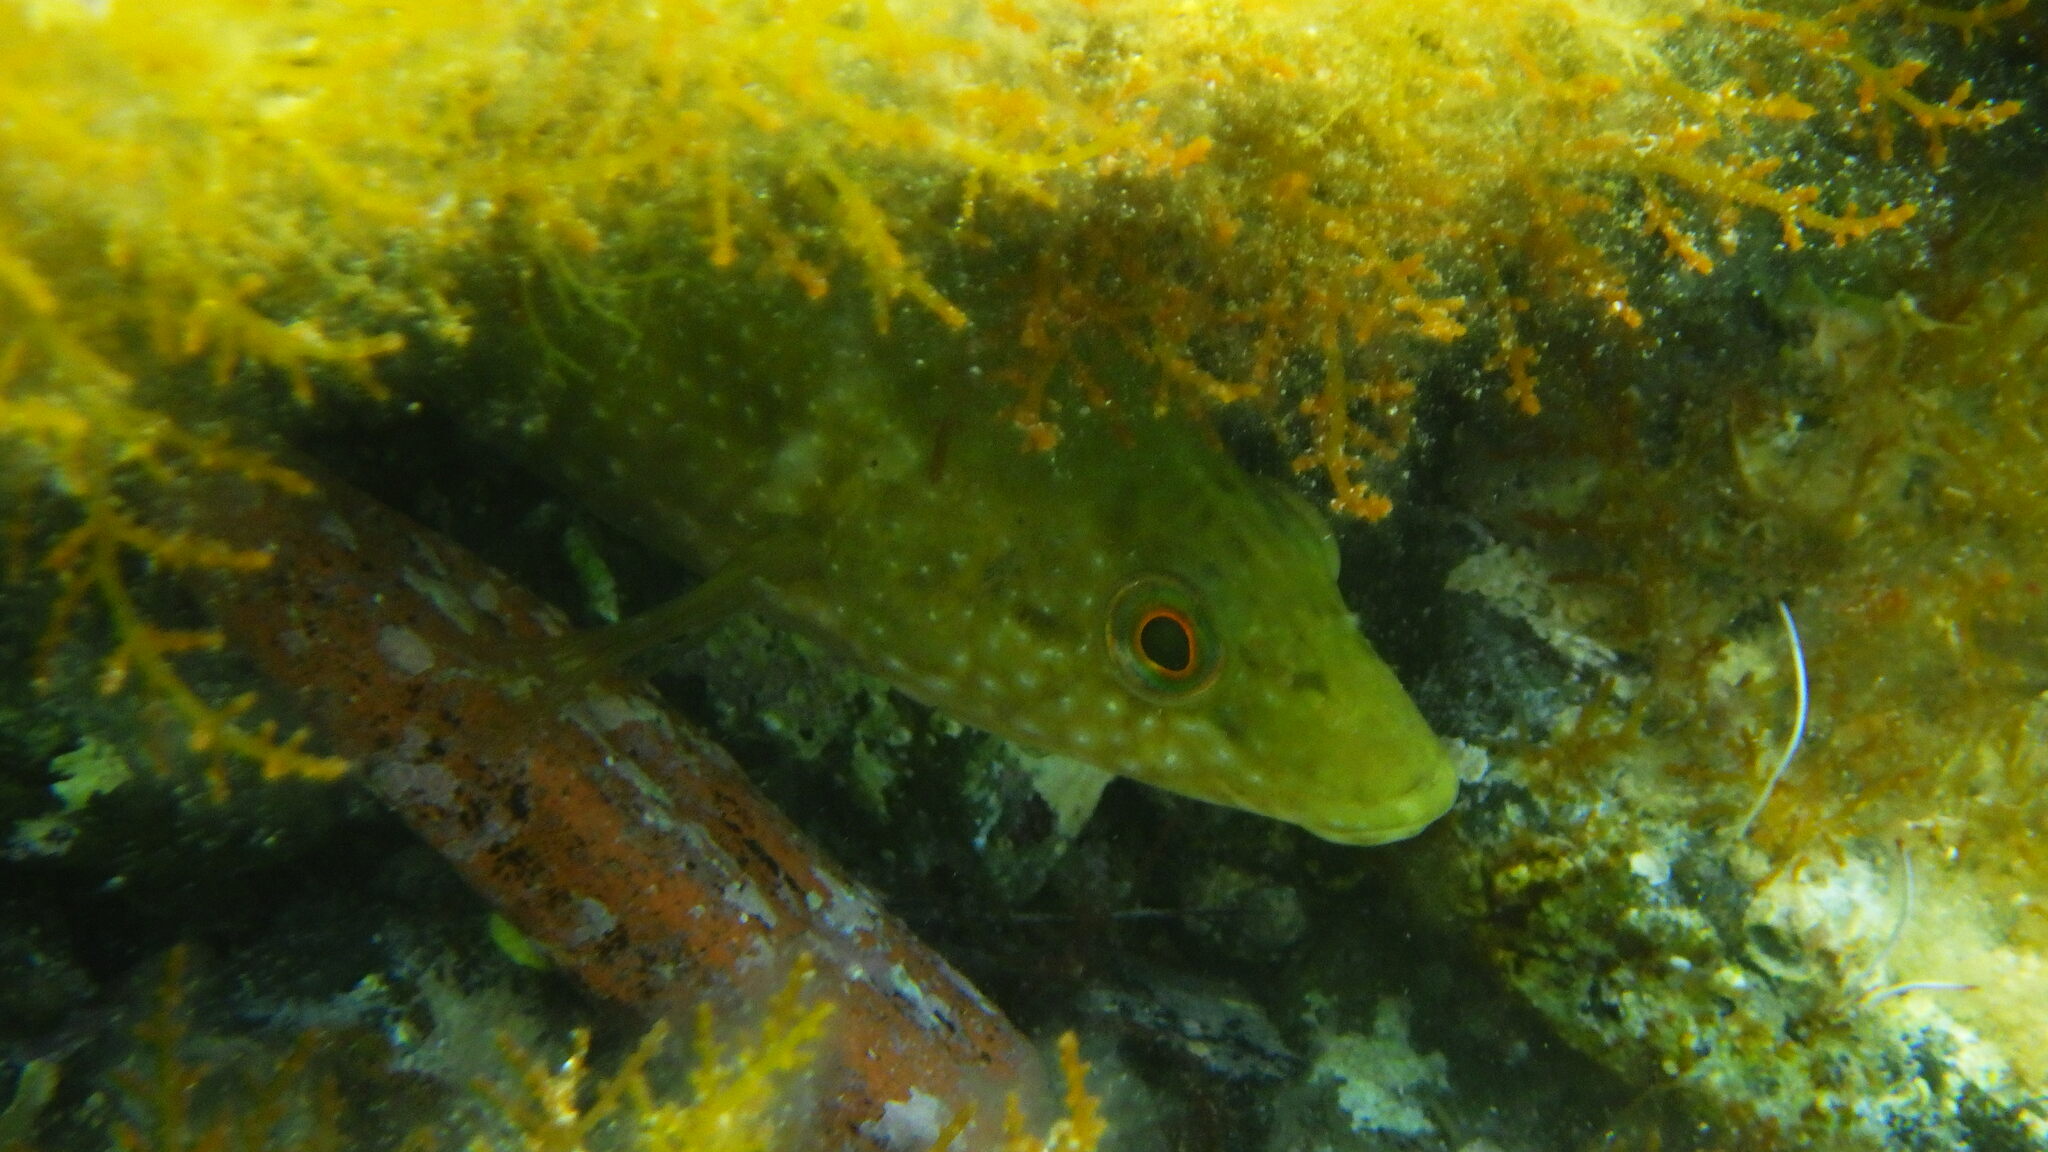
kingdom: Animalia
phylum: Chordata
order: Perciformes
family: Labridae
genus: Labrus
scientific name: Labrus merula
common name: Brown wrasse
